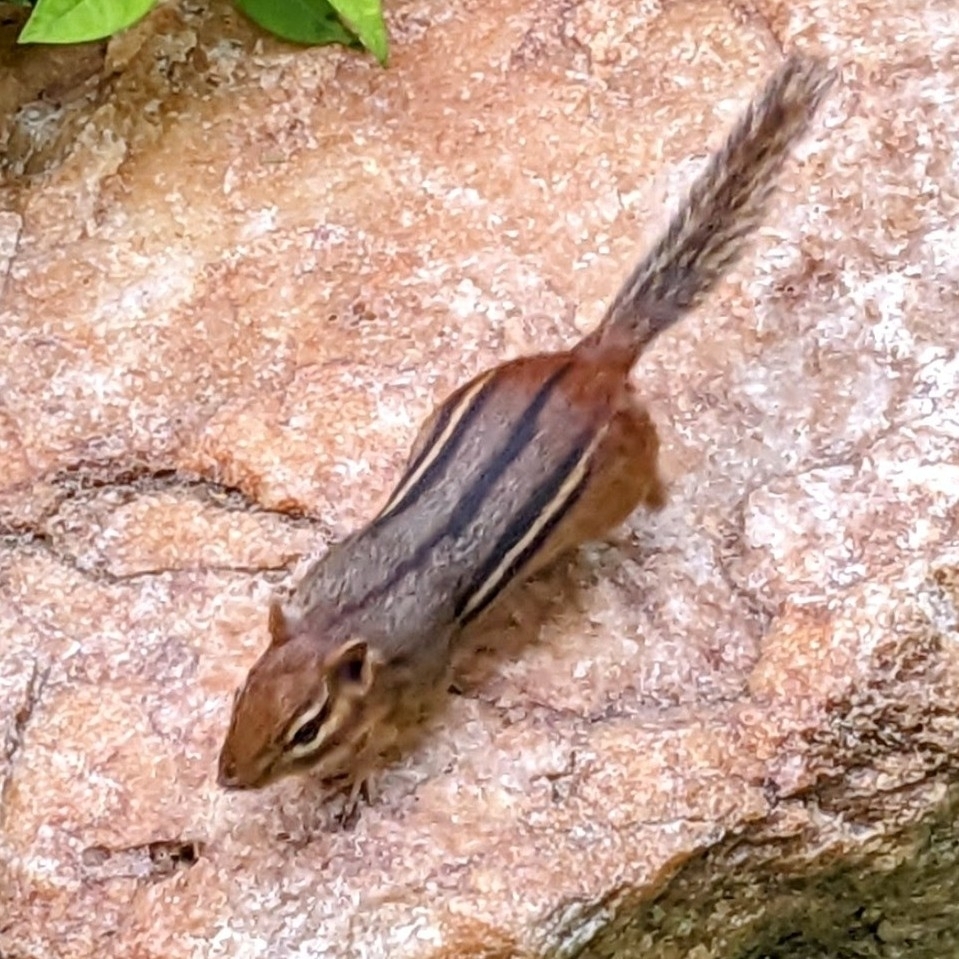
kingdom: Animalia
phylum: Chordata
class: Mammalia
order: Rodentia
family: Sciuridae
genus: Tamias
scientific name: Tamias striatus
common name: Eastern chipmunk
